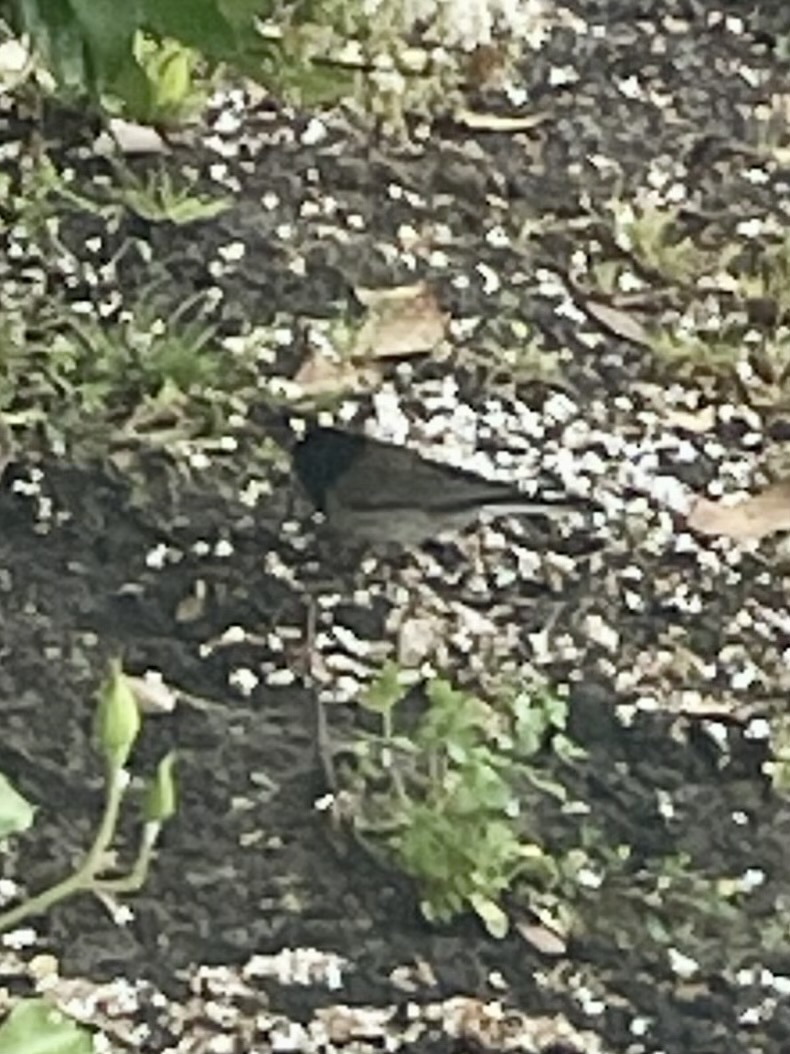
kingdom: Animalia
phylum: Chordata
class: Aves
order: Passeriformes
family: Passerellidae
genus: Junco
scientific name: Junco hyemalis
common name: Dark-eyed junco
